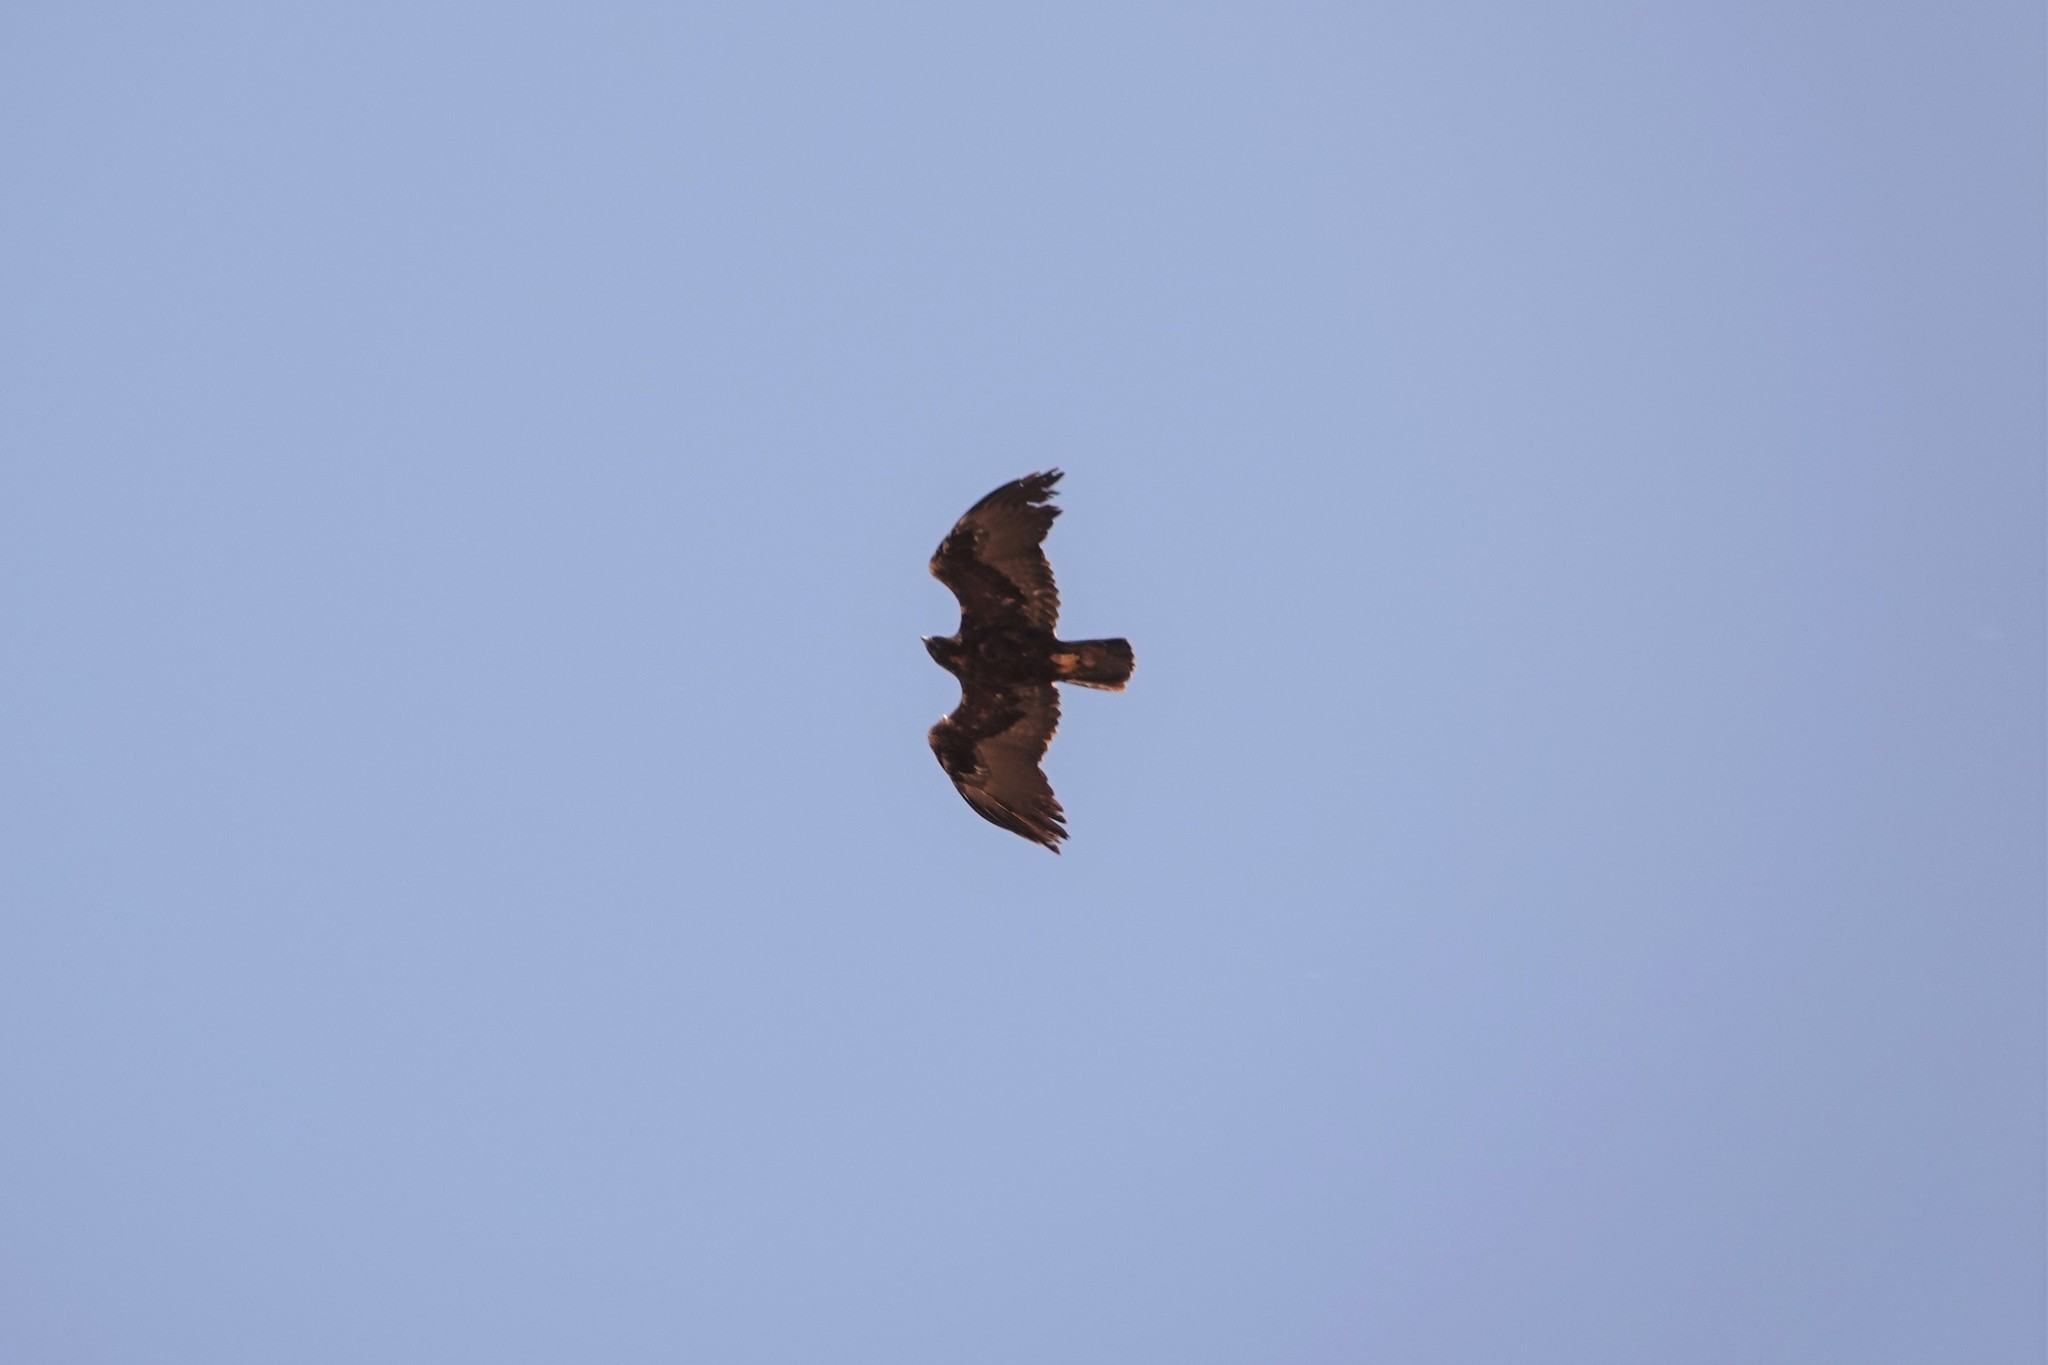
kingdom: Animalia
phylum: Chordata
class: Aves
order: Accipitriformes
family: Accipitridae
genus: Aquila
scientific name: Aquila chrysaetos
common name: Golden eagle
